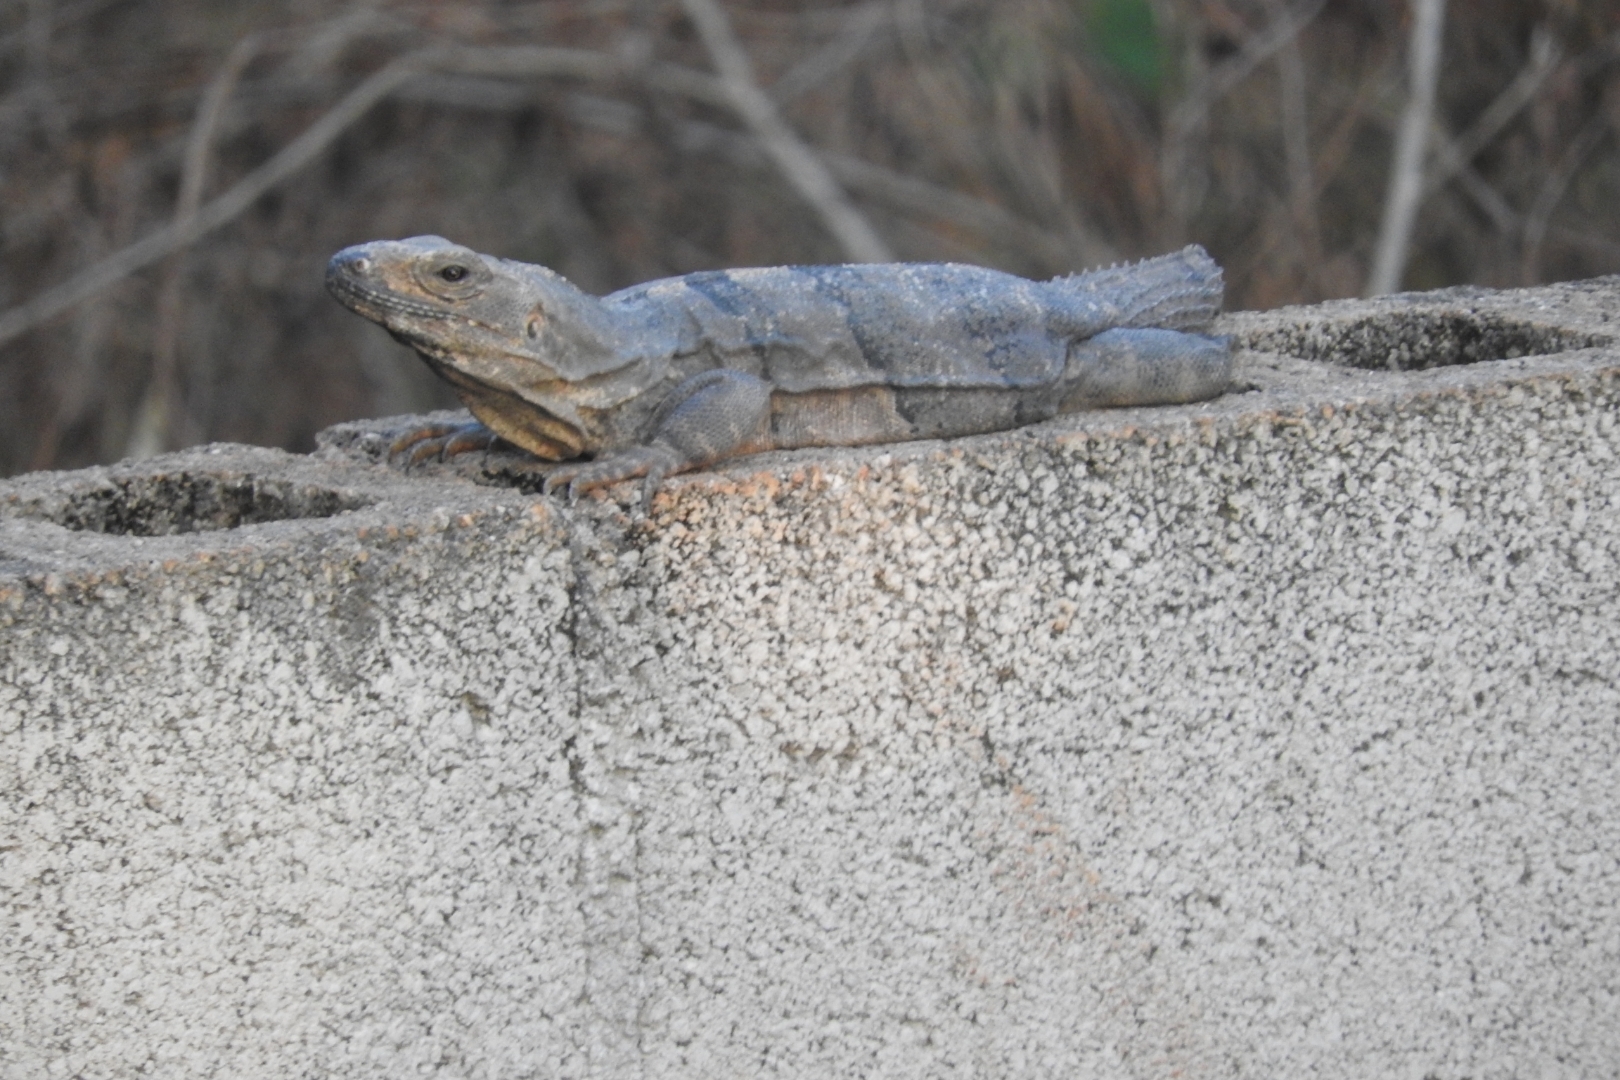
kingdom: Animalia
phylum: Chordata
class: Squamata
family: Iguanidae
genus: Ctenosaura
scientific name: Ctenosaura similis
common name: Black spiny-tailed iguana
